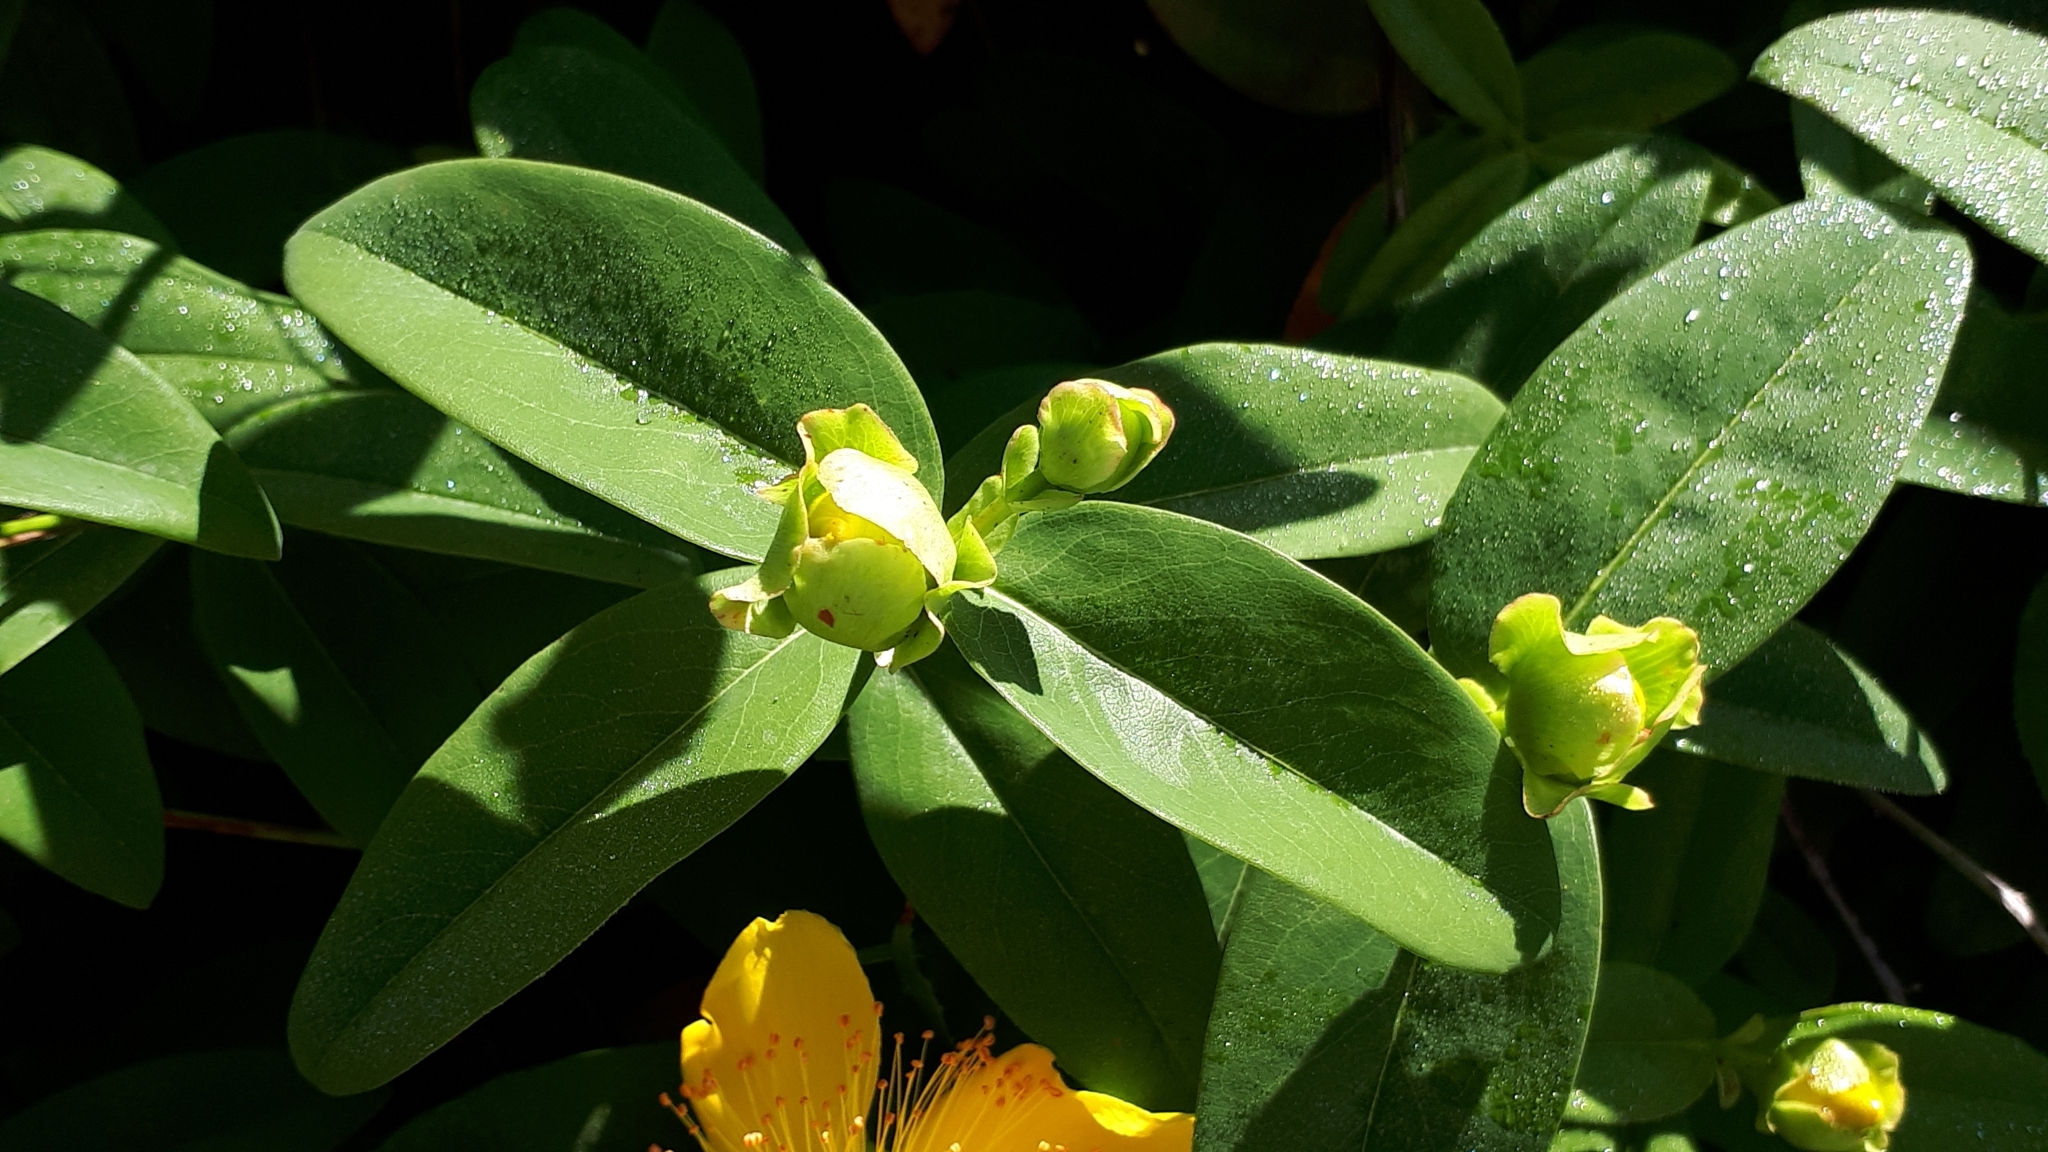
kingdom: Plantae
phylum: Tracheophyta
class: Magnoliopsida
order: Malpighiales
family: Hypericaceae
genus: Hypericum
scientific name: Hypericum calycinum
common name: Rose-of-sharon
